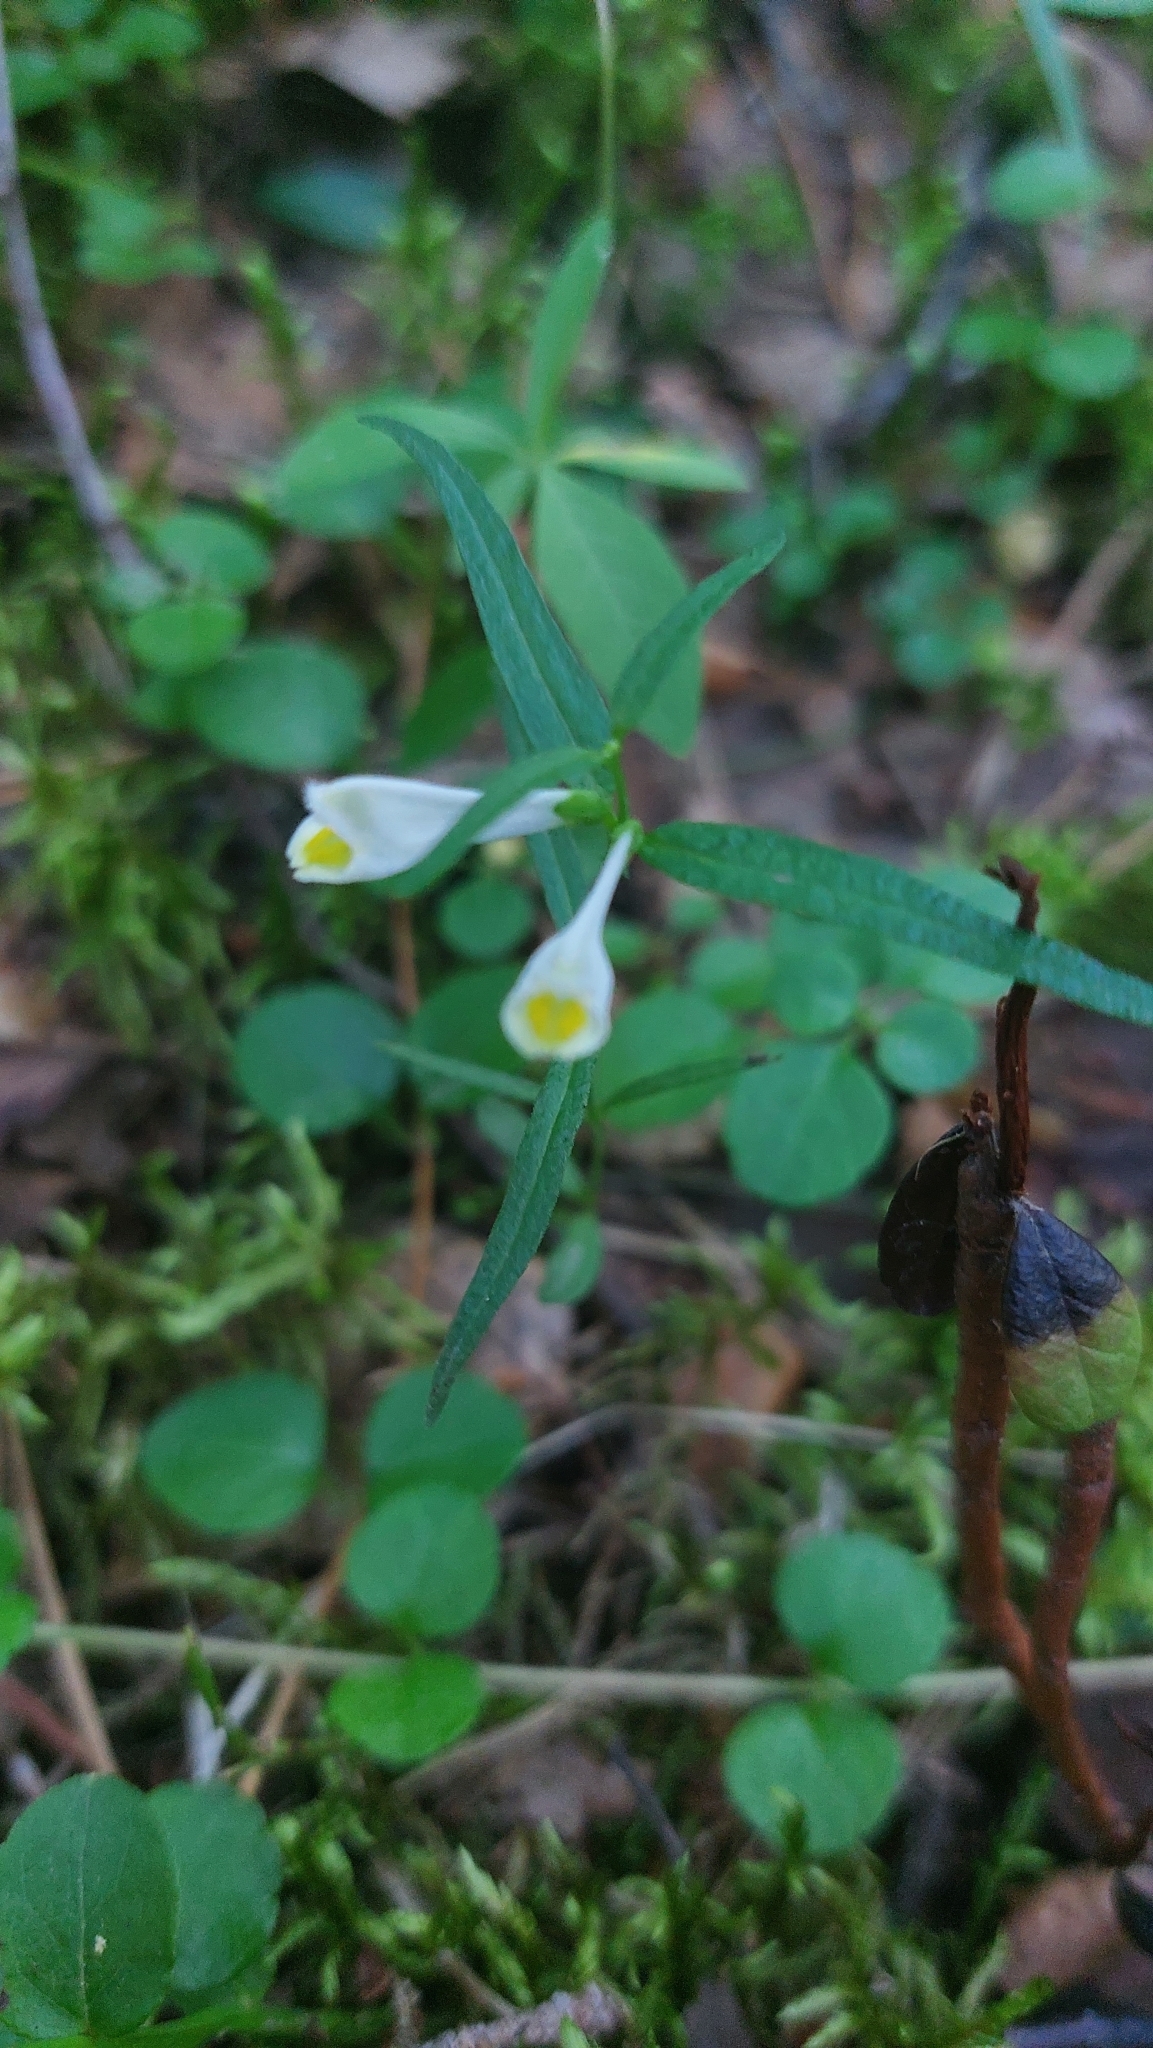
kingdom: Plantae
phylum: Tracheophyta
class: Magnoliopsida
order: Lamiales
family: Orobanchaceae
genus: Melampyrum
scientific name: Melampyrum pratense
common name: Common cow-wheat
